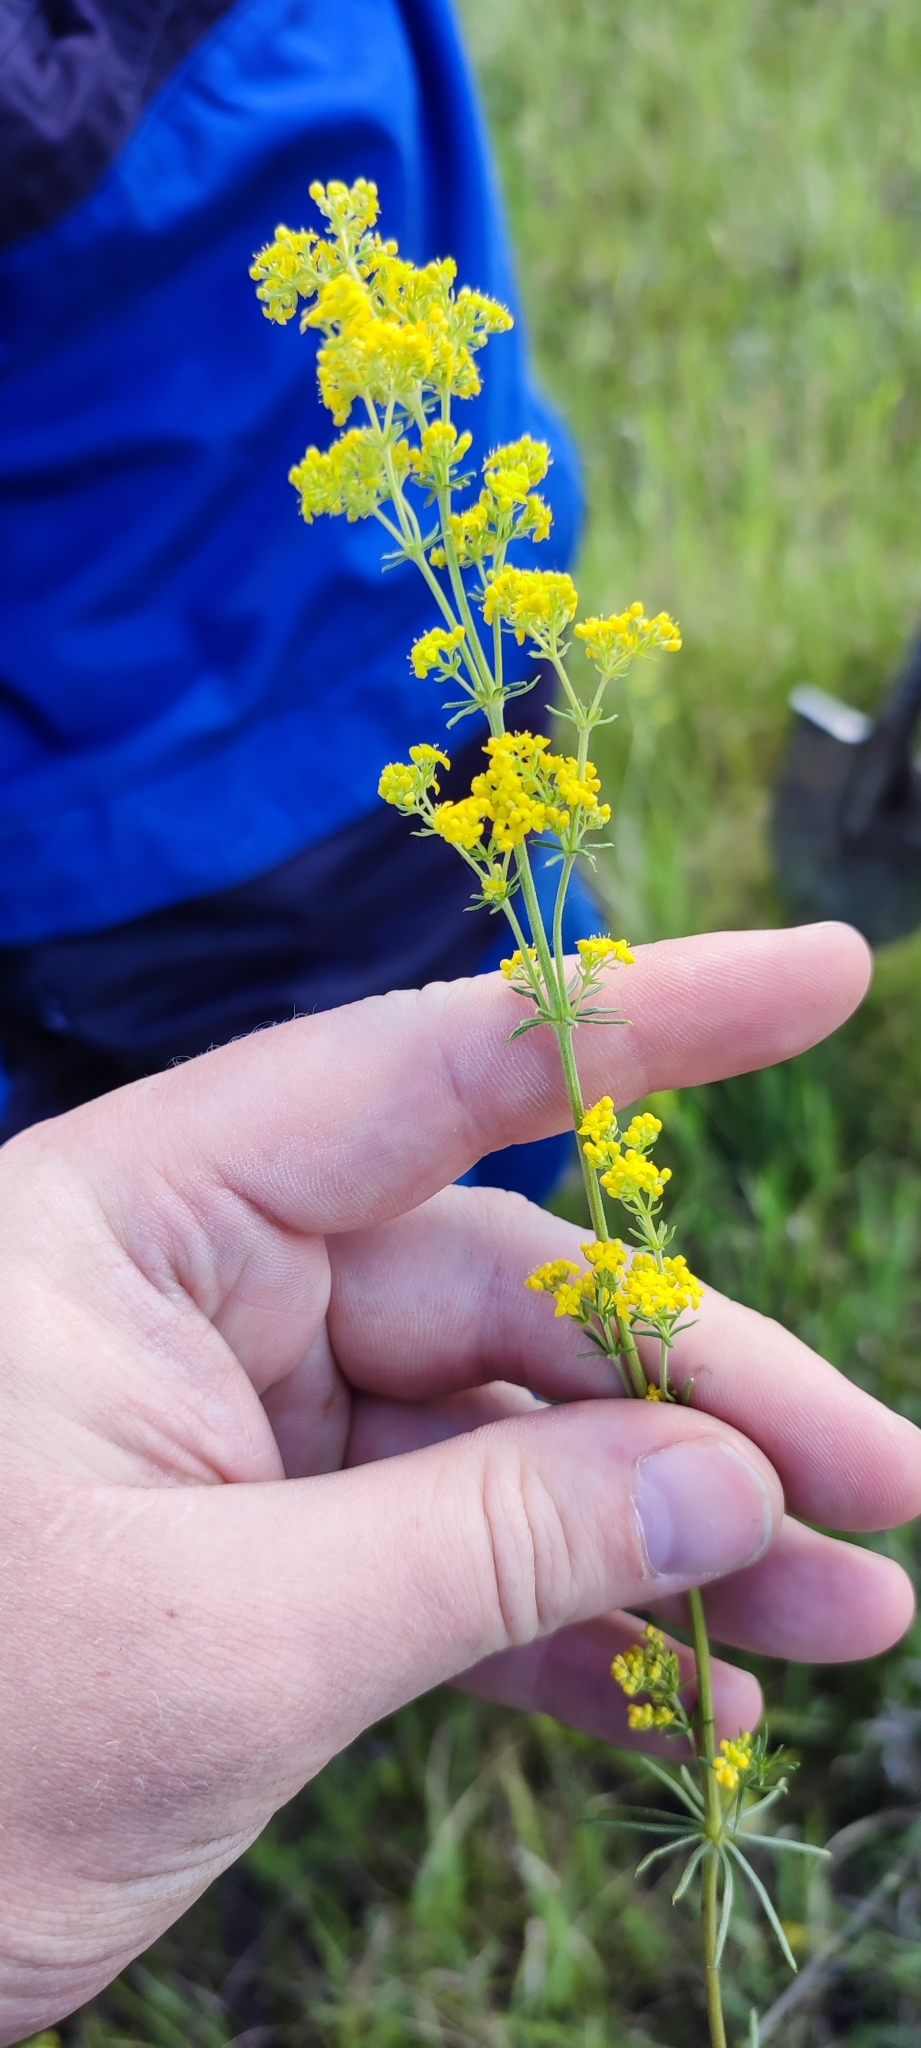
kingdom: Plantae
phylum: Tracheophyta
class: Magnoliopsida
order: Gentianales
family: Rubiaceae
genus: Galium
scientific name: Galium verum
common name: Lady's bedstraw
